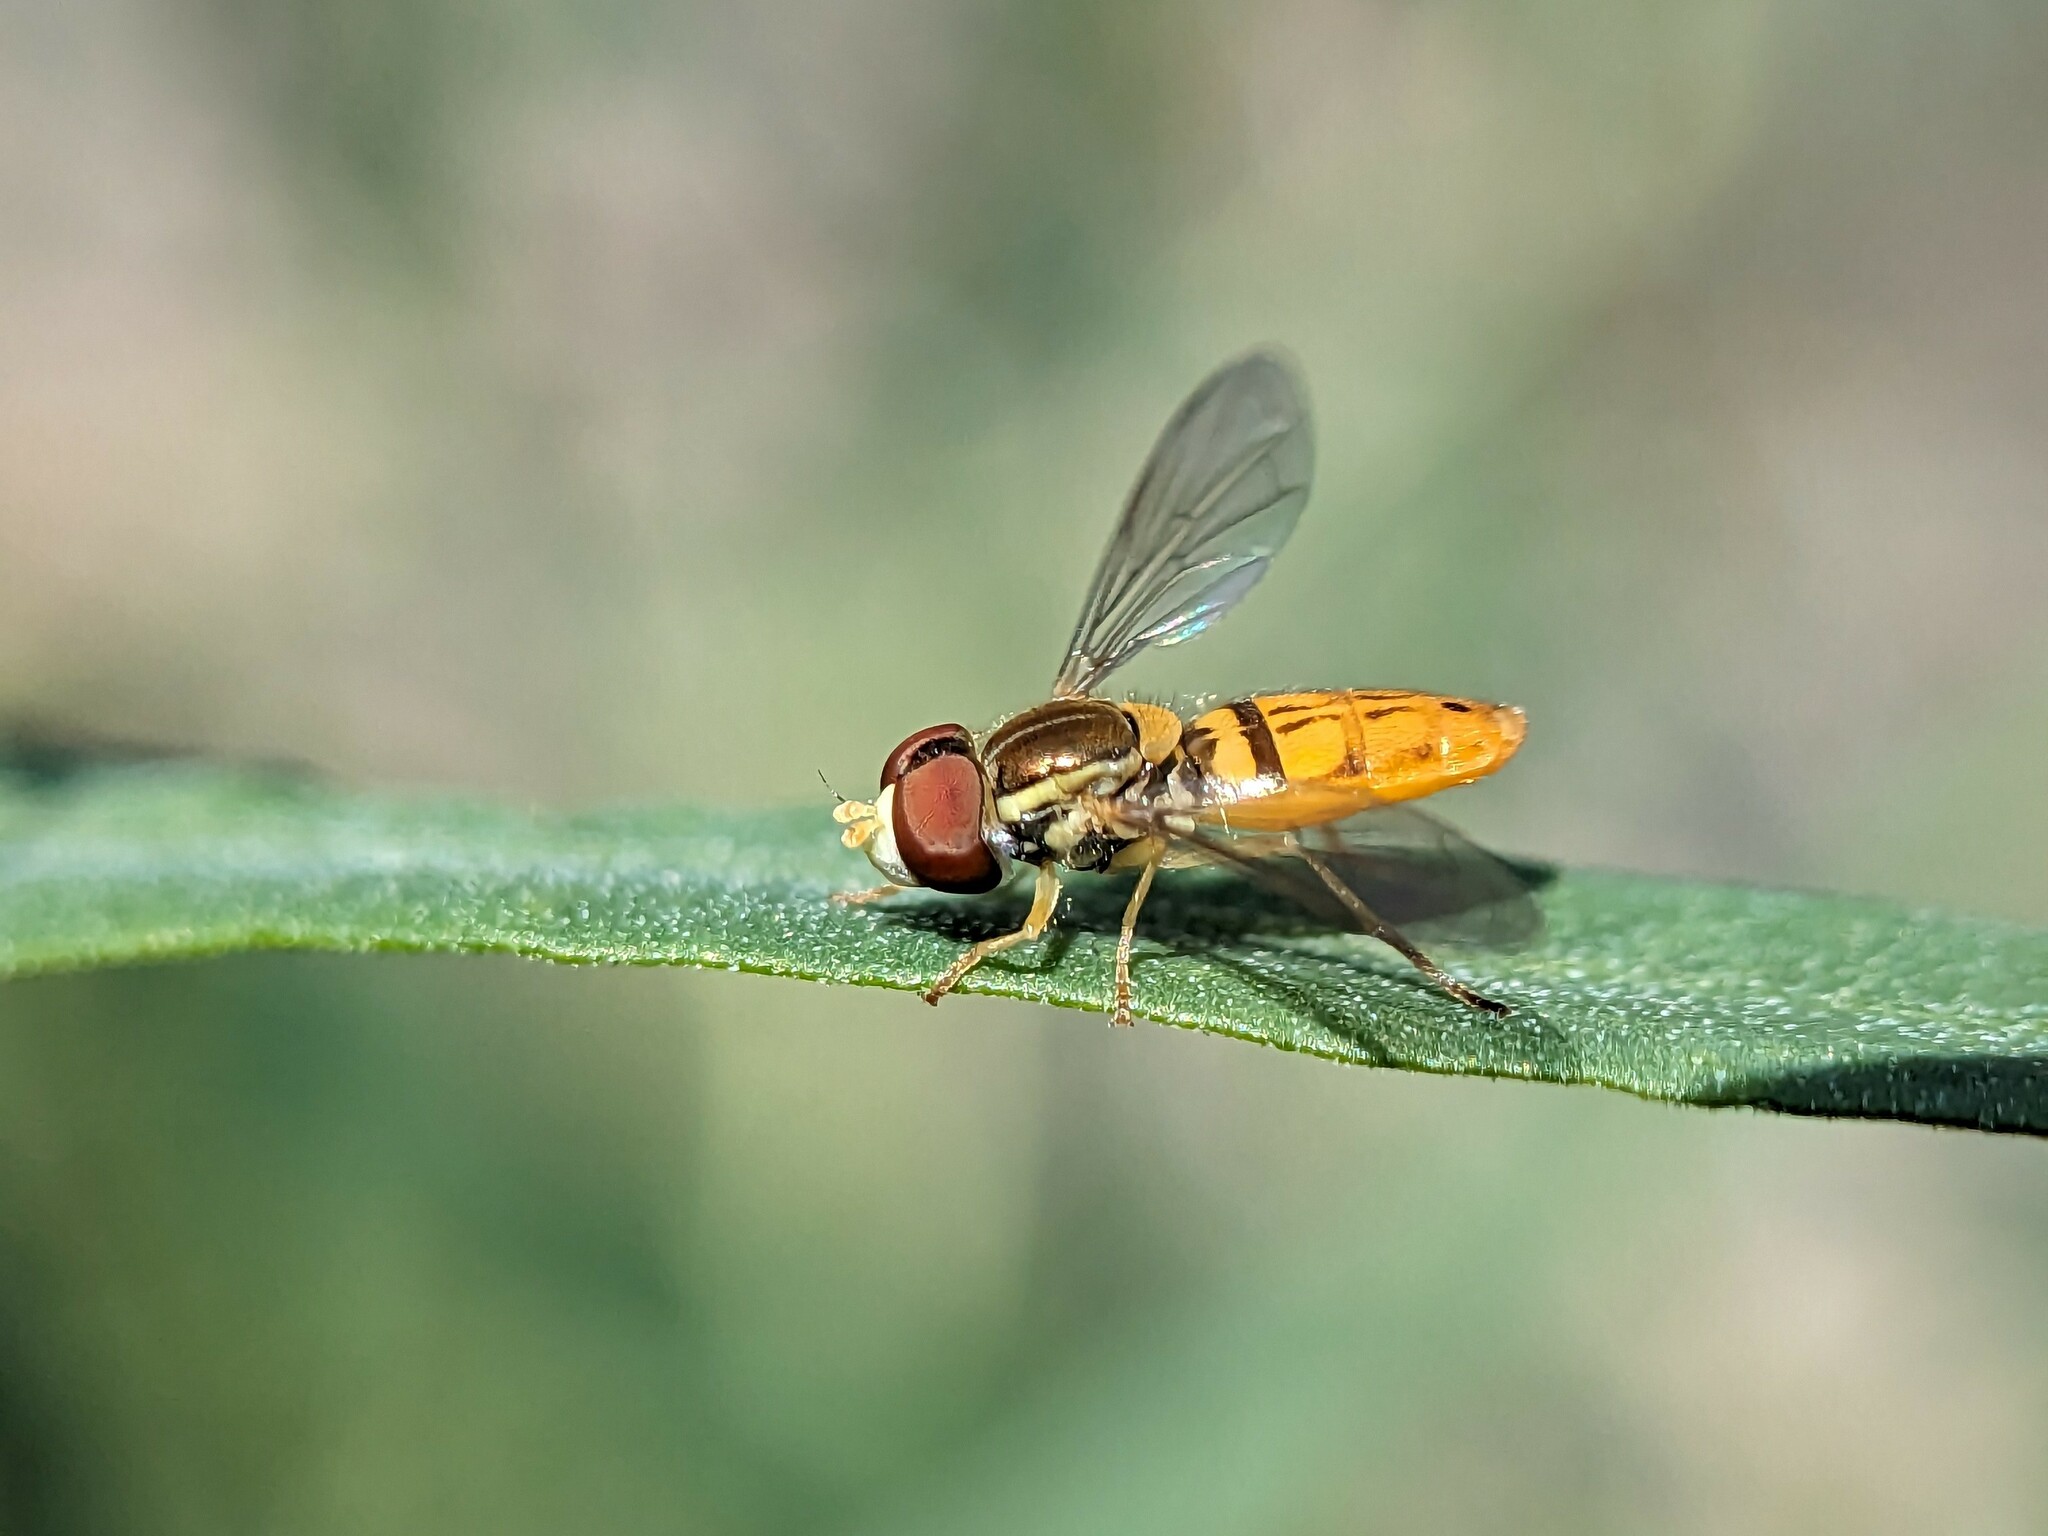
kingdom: Animalia
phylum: Arthropoda
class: Insecta
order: Diptera
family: Syrphidae
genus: Toxomerus
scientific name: Toxomerus marginatus
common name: Syrphid fly
